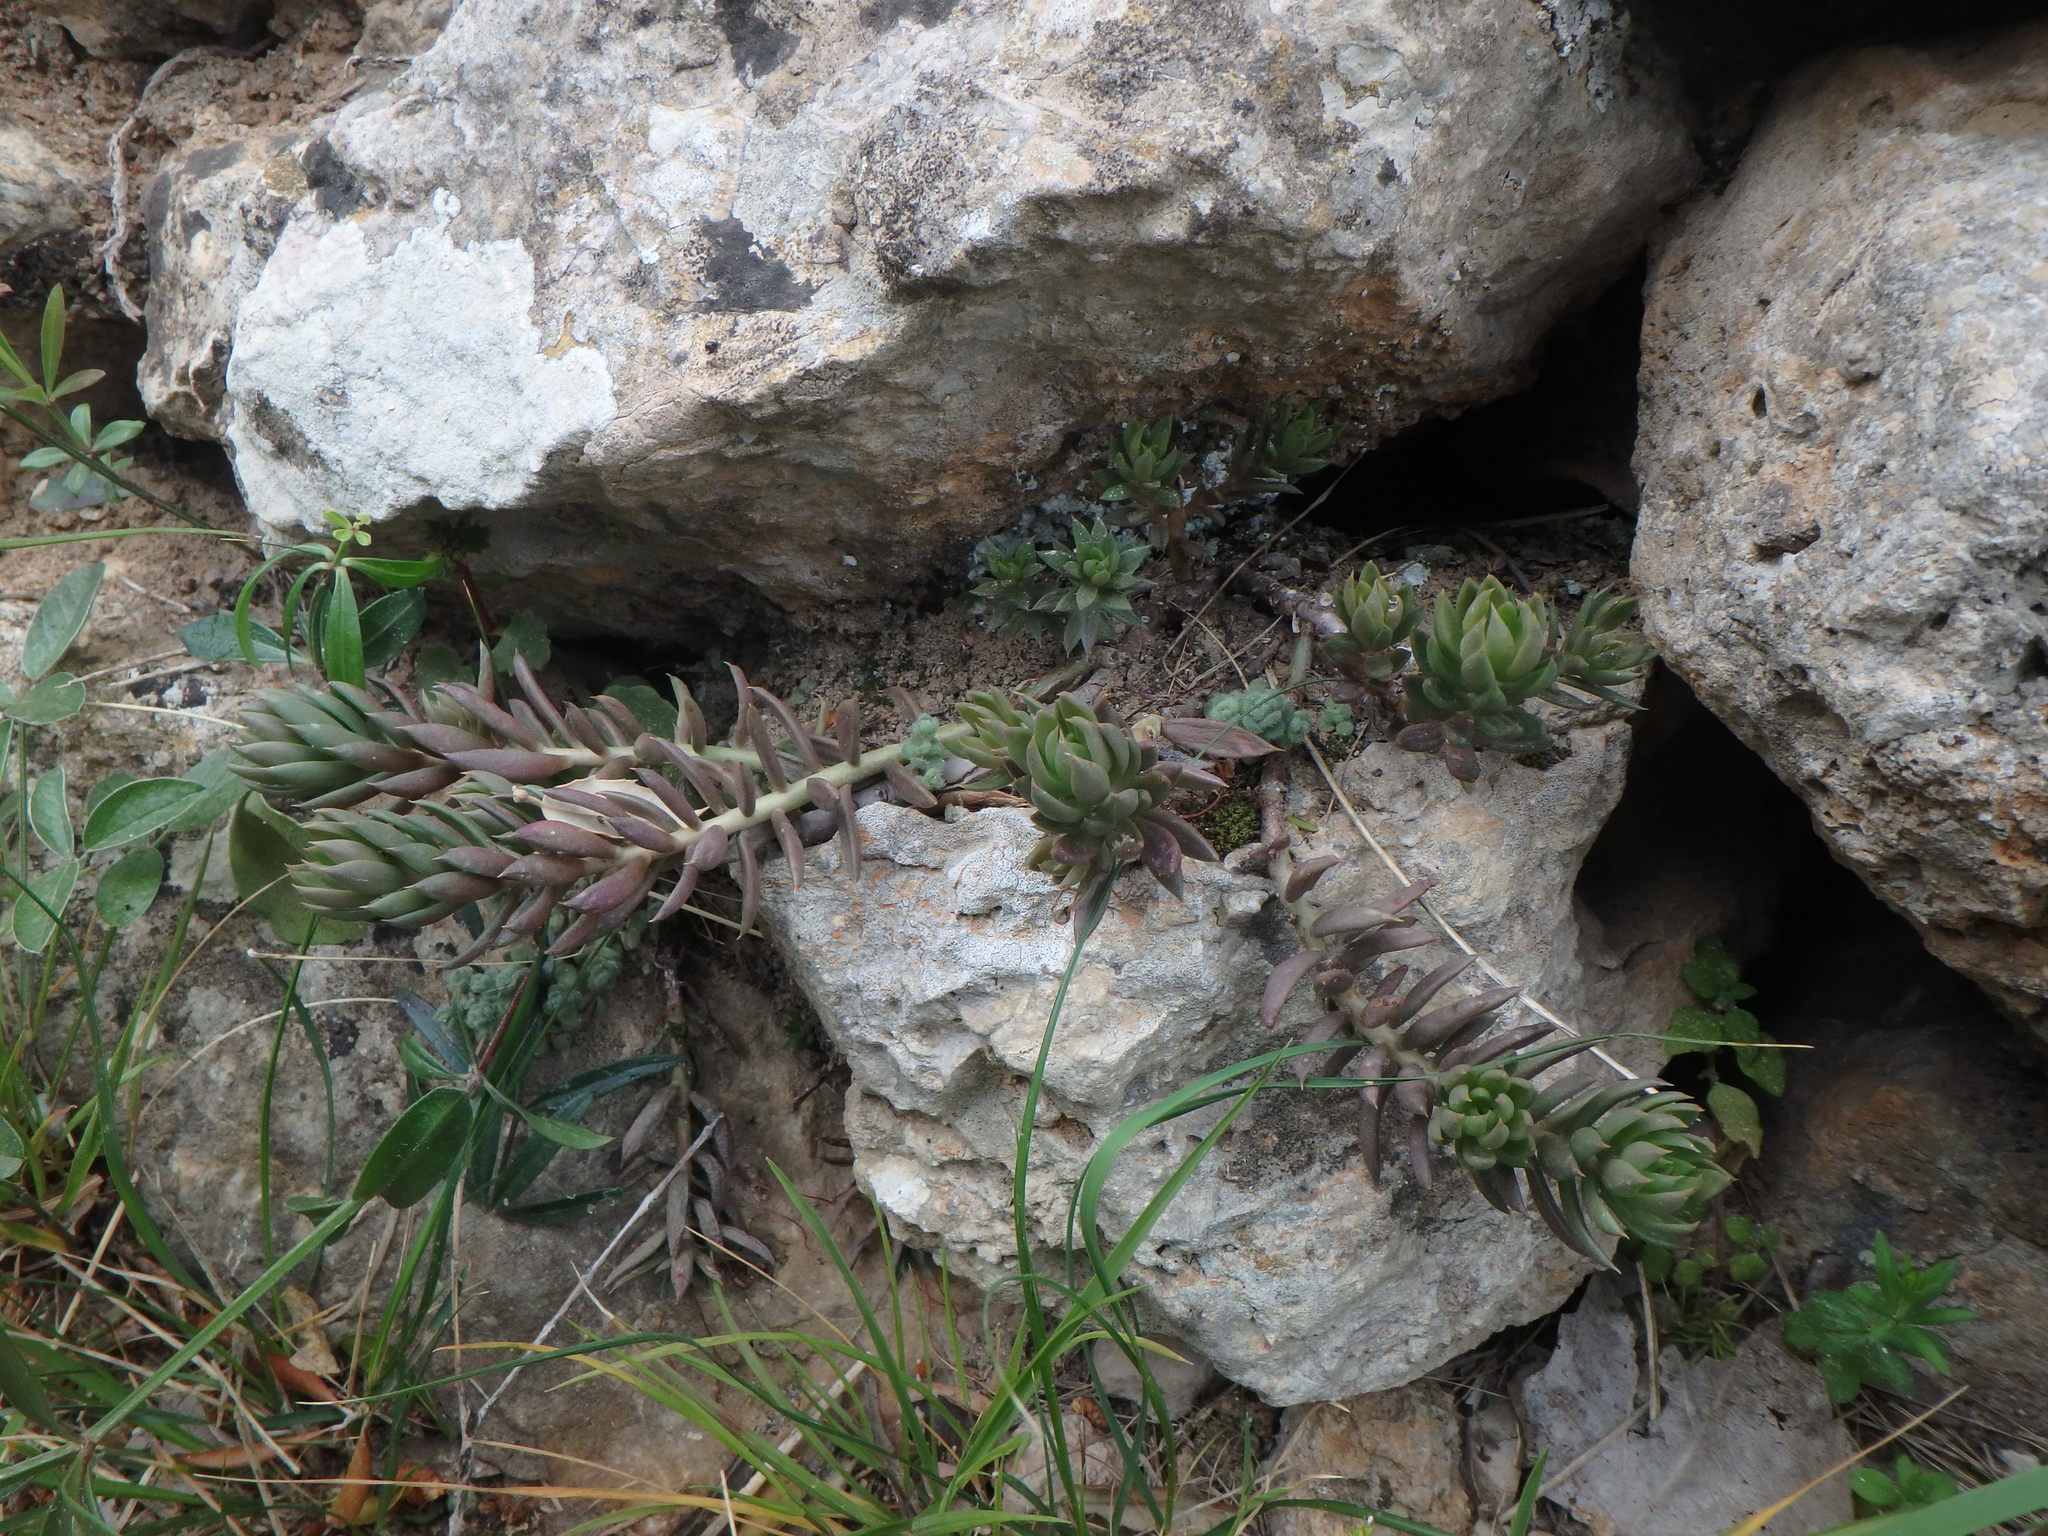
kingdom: Plantae
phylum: Tracheophyta
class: Magnoliopsida
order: Saxifragales
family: Crassulaceae
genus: Petrosedum
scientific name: Petrosedum sediforme
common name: Pale stonecrop
